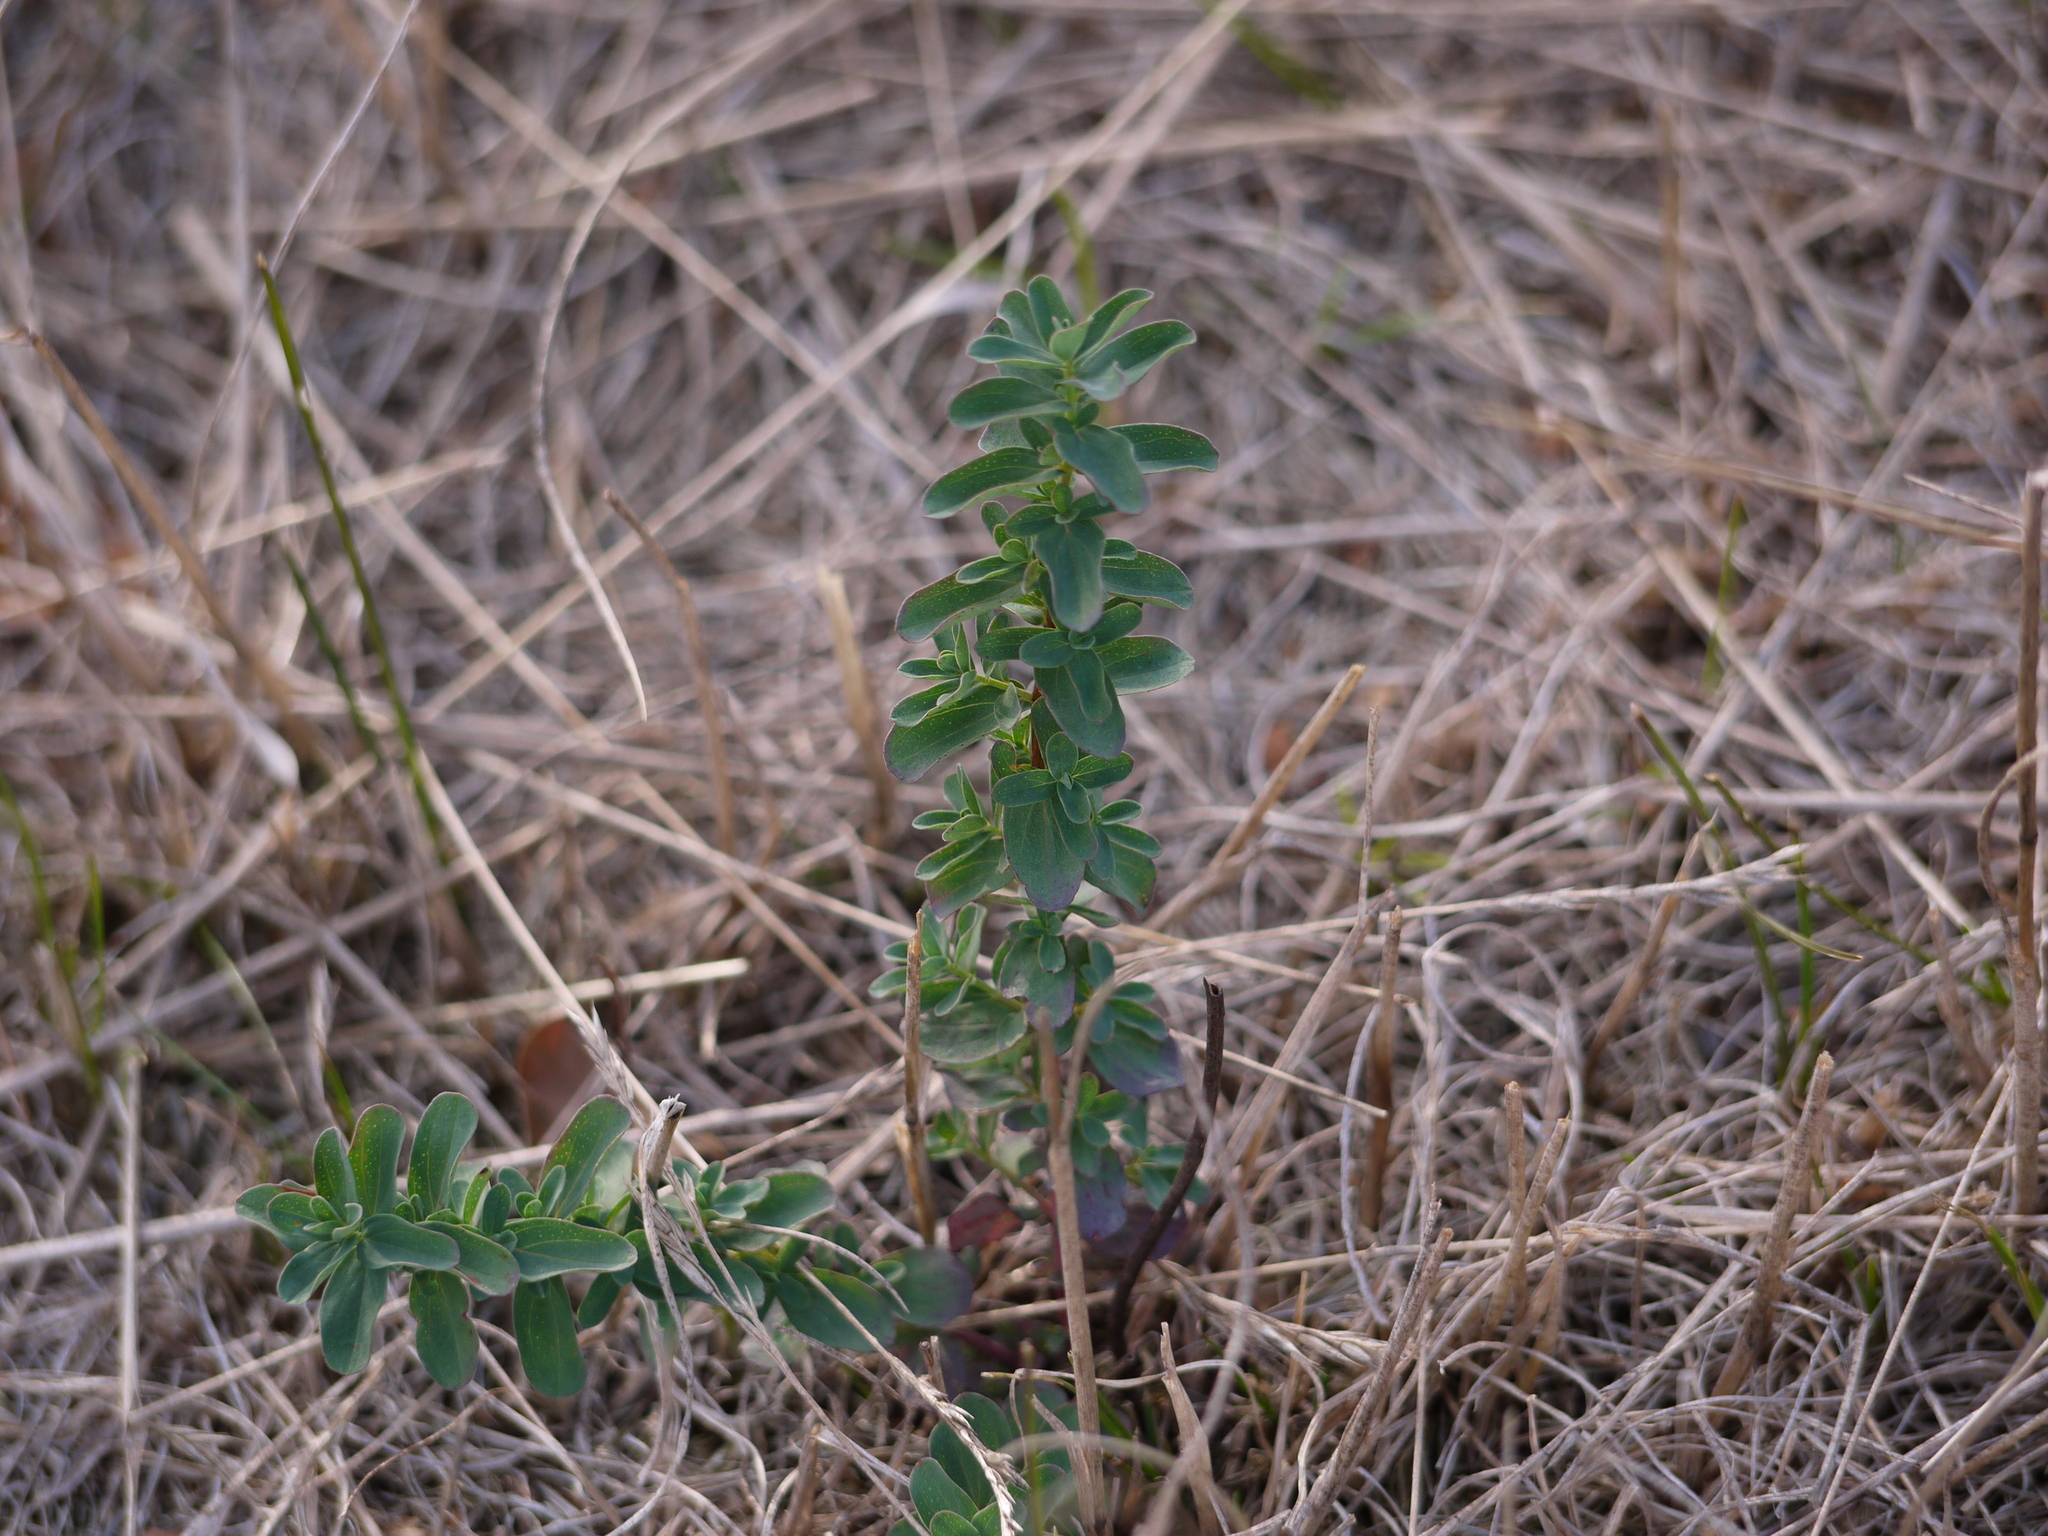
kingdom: Plantae
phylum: Tracheophyta
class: Magnoliopsida
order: Malpighiales
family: Hypericaceae
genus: Hypericum
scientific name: Hypericum perforatum
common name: Common st. johnswort
